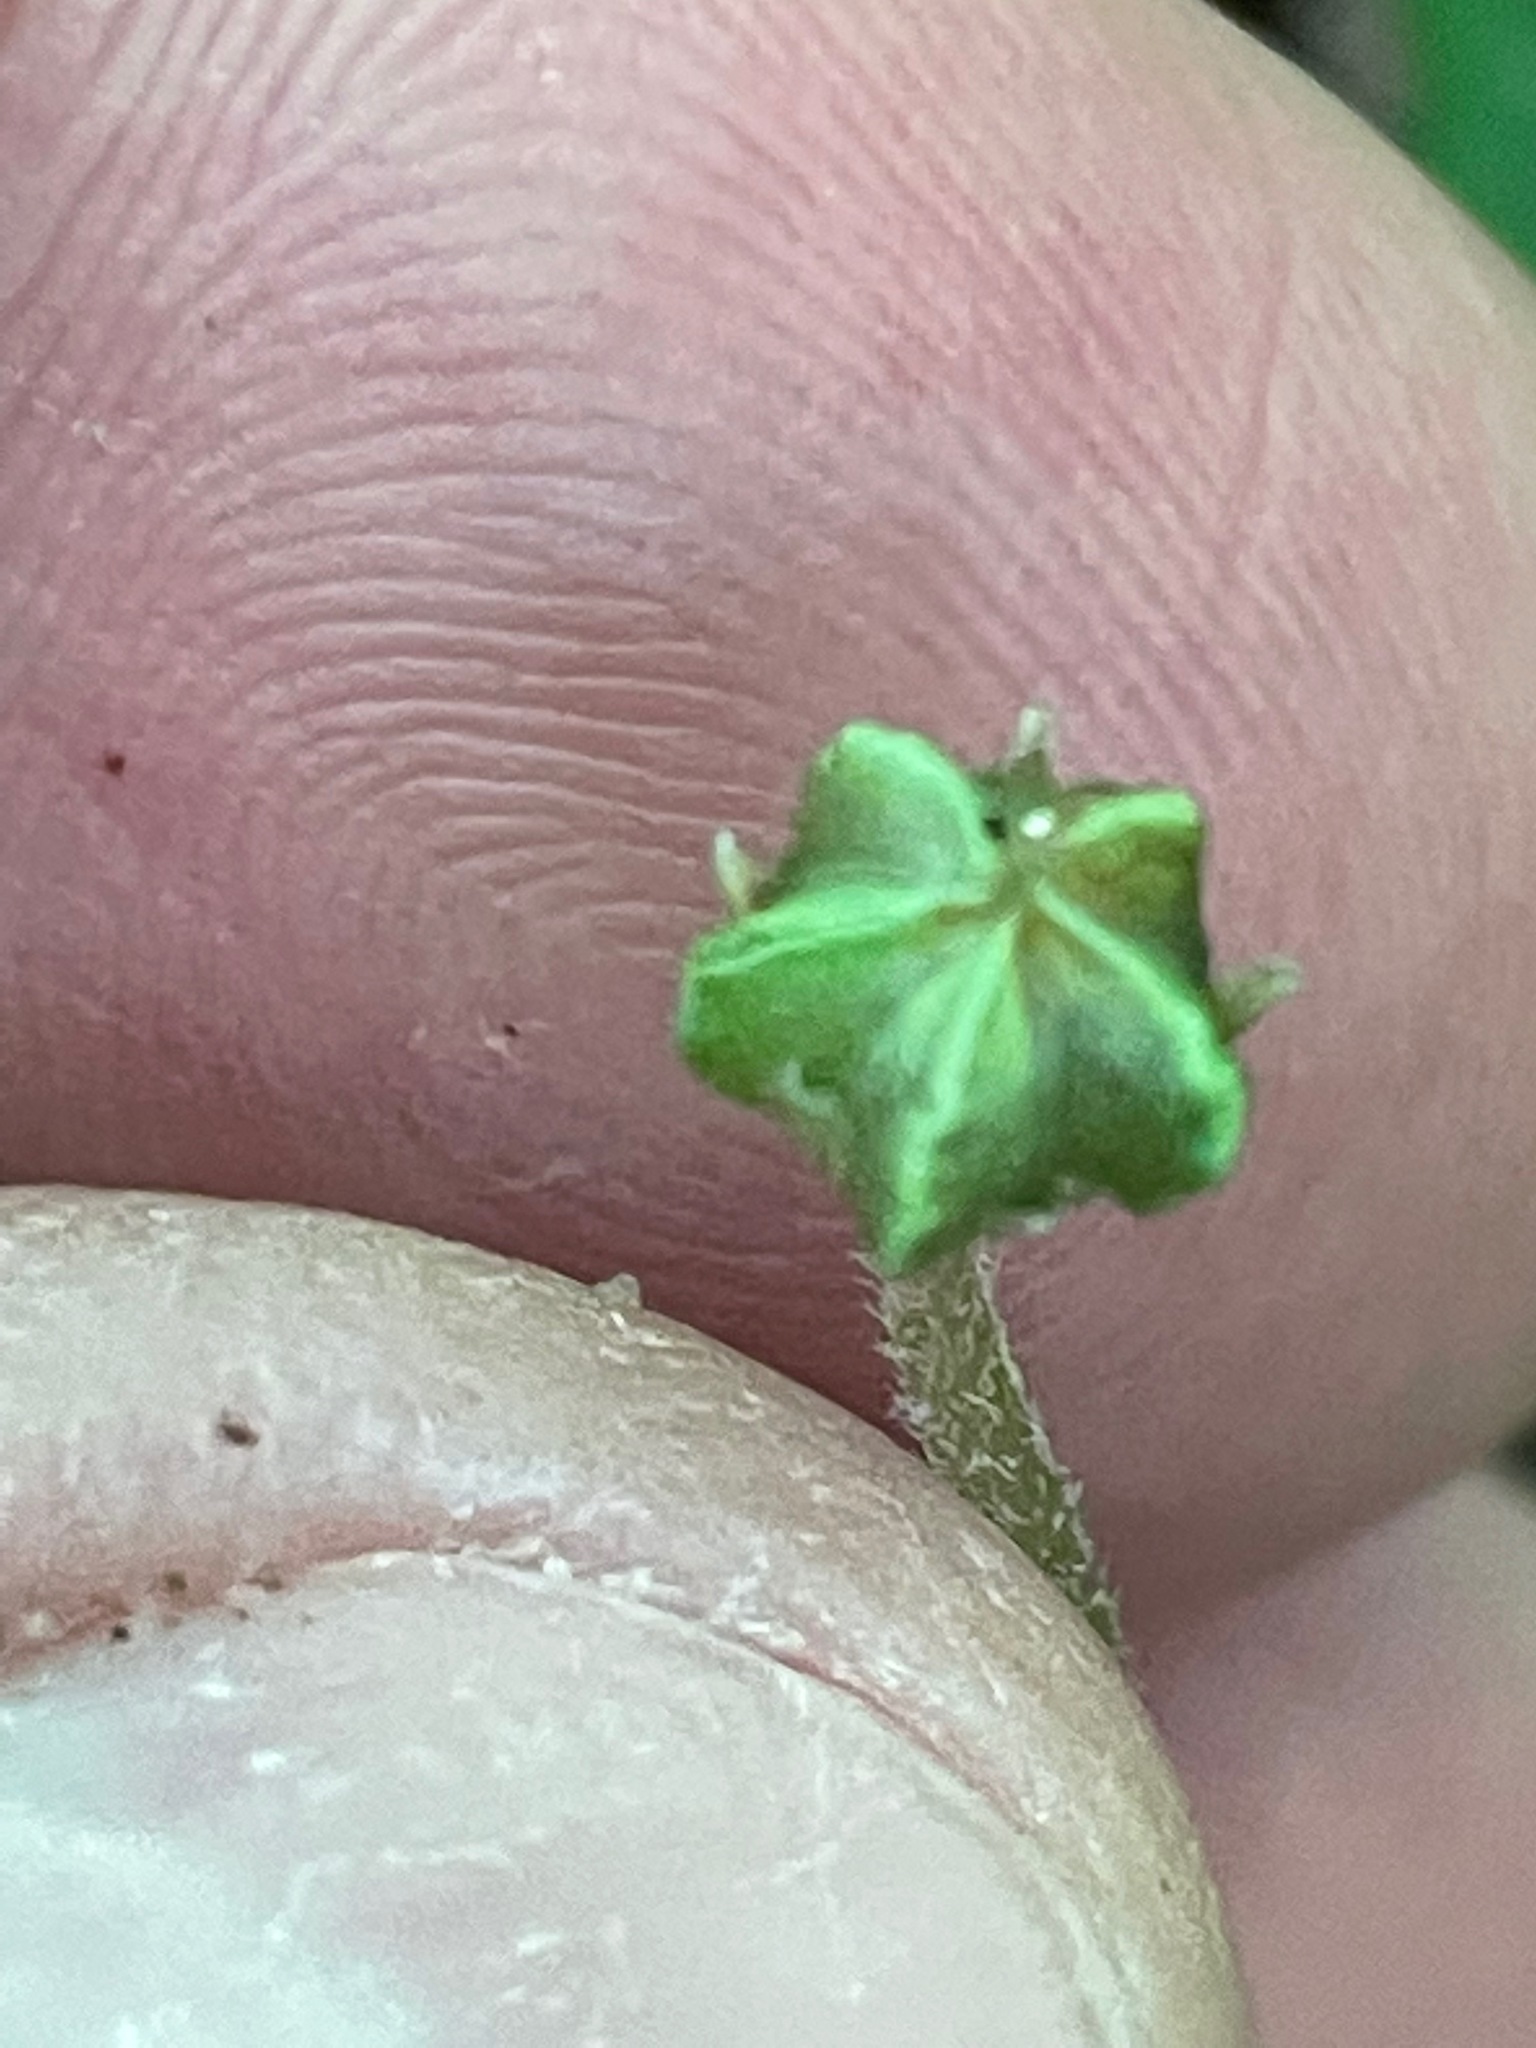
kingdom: Plantae
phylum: Tracheophyta
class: Magnoliopsida
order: Oxalidales
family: Oxalidaceae
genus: Oxalis
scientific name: Oxalis montana
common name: American wood-sorrel
